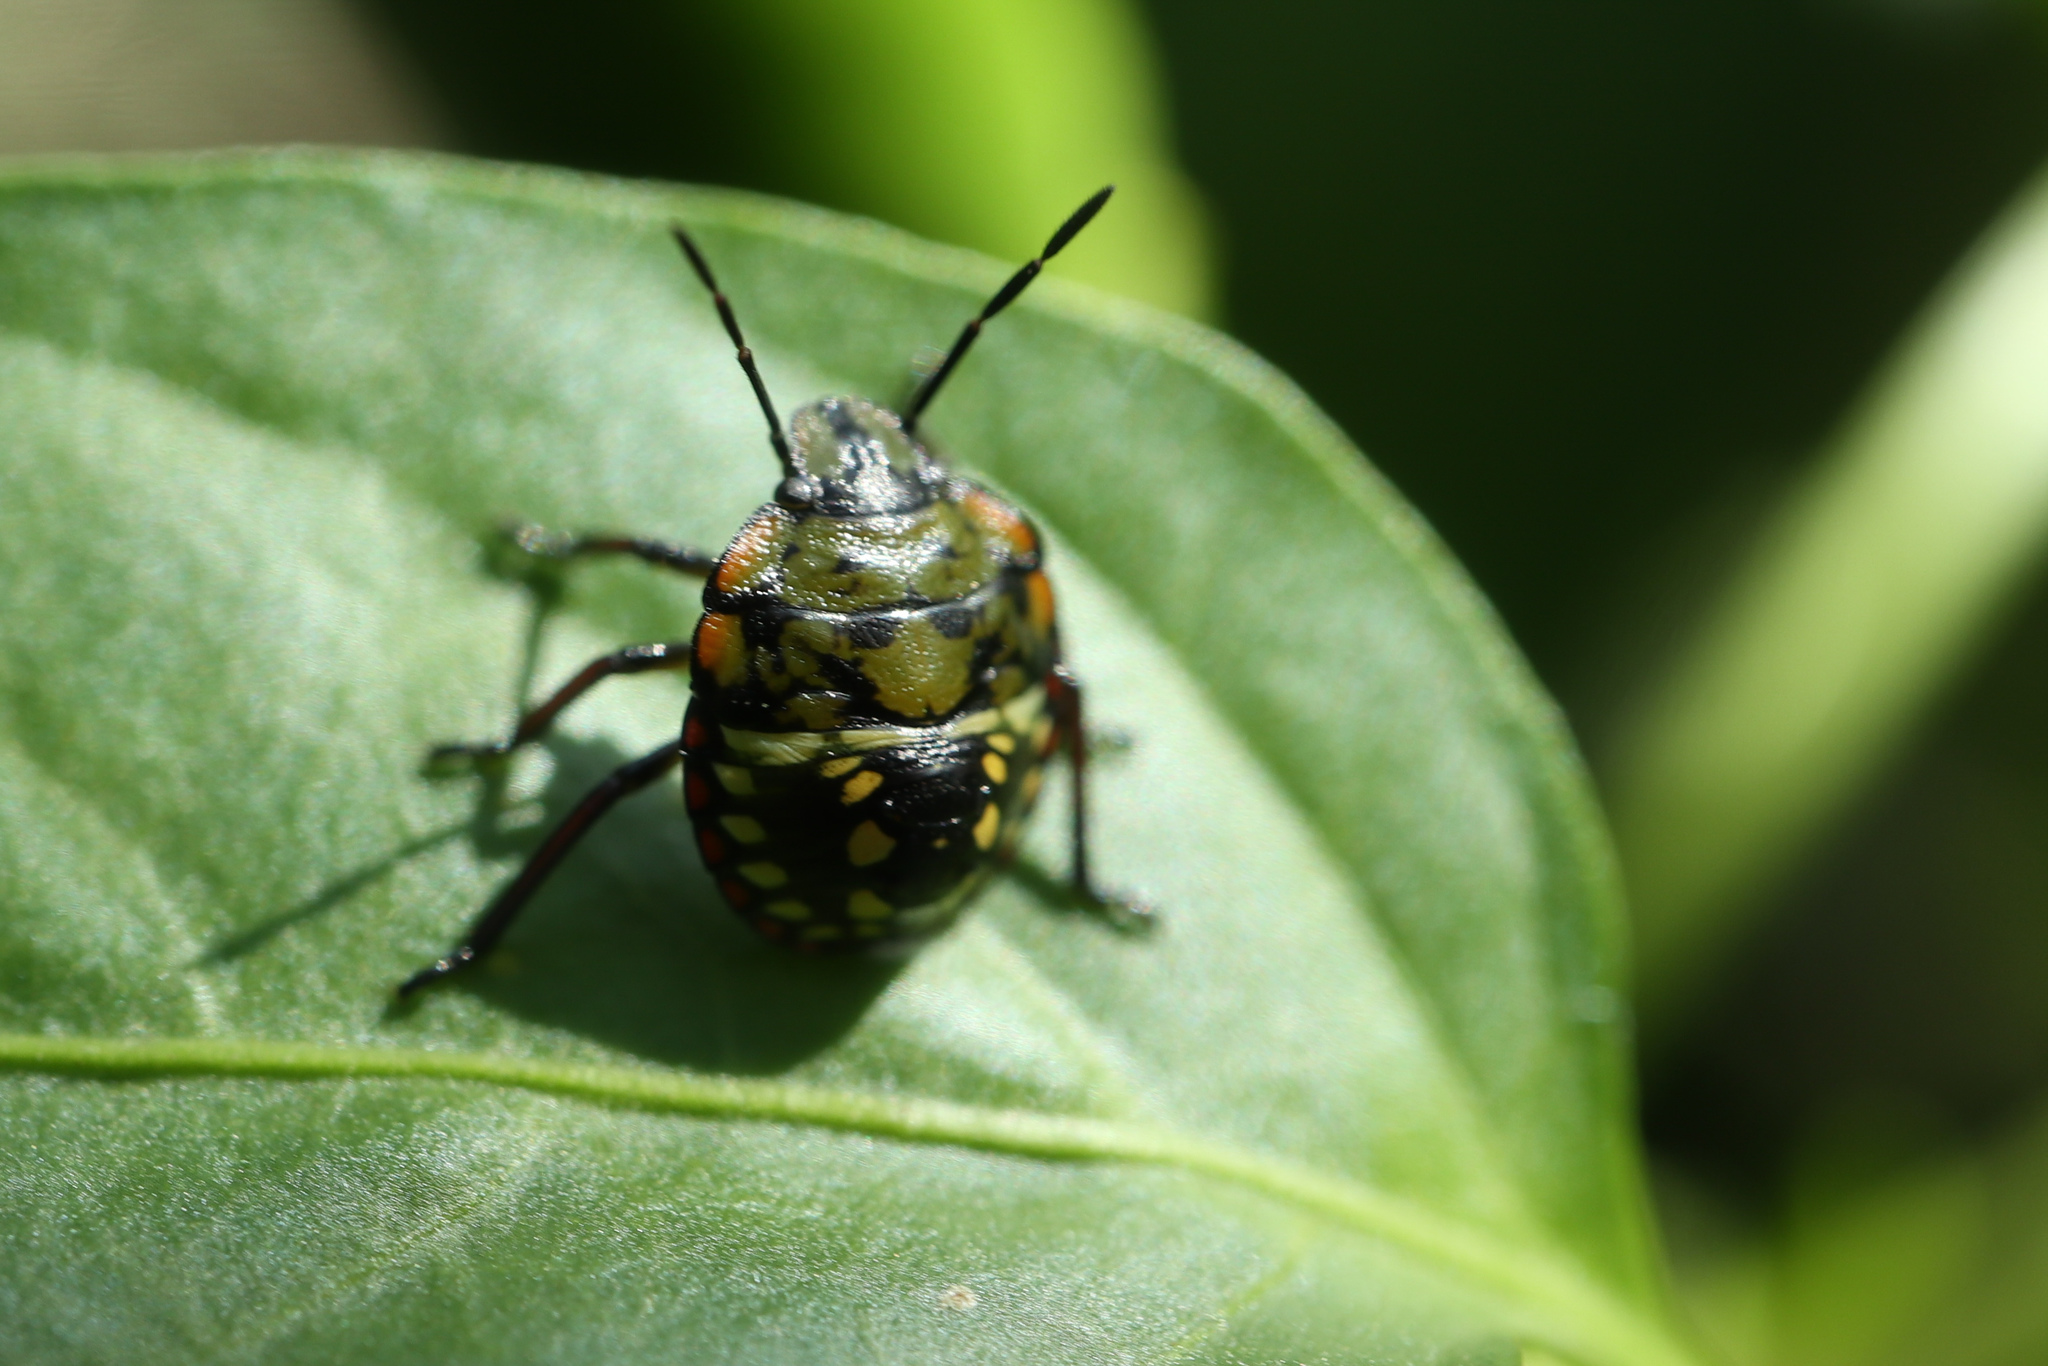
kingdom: Animalia
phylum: Arthropoda
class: Insecta
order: Hemiptera
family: Pentatomidae
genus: Nezara
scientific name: Nezara viridula
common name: Southern green stink bug
